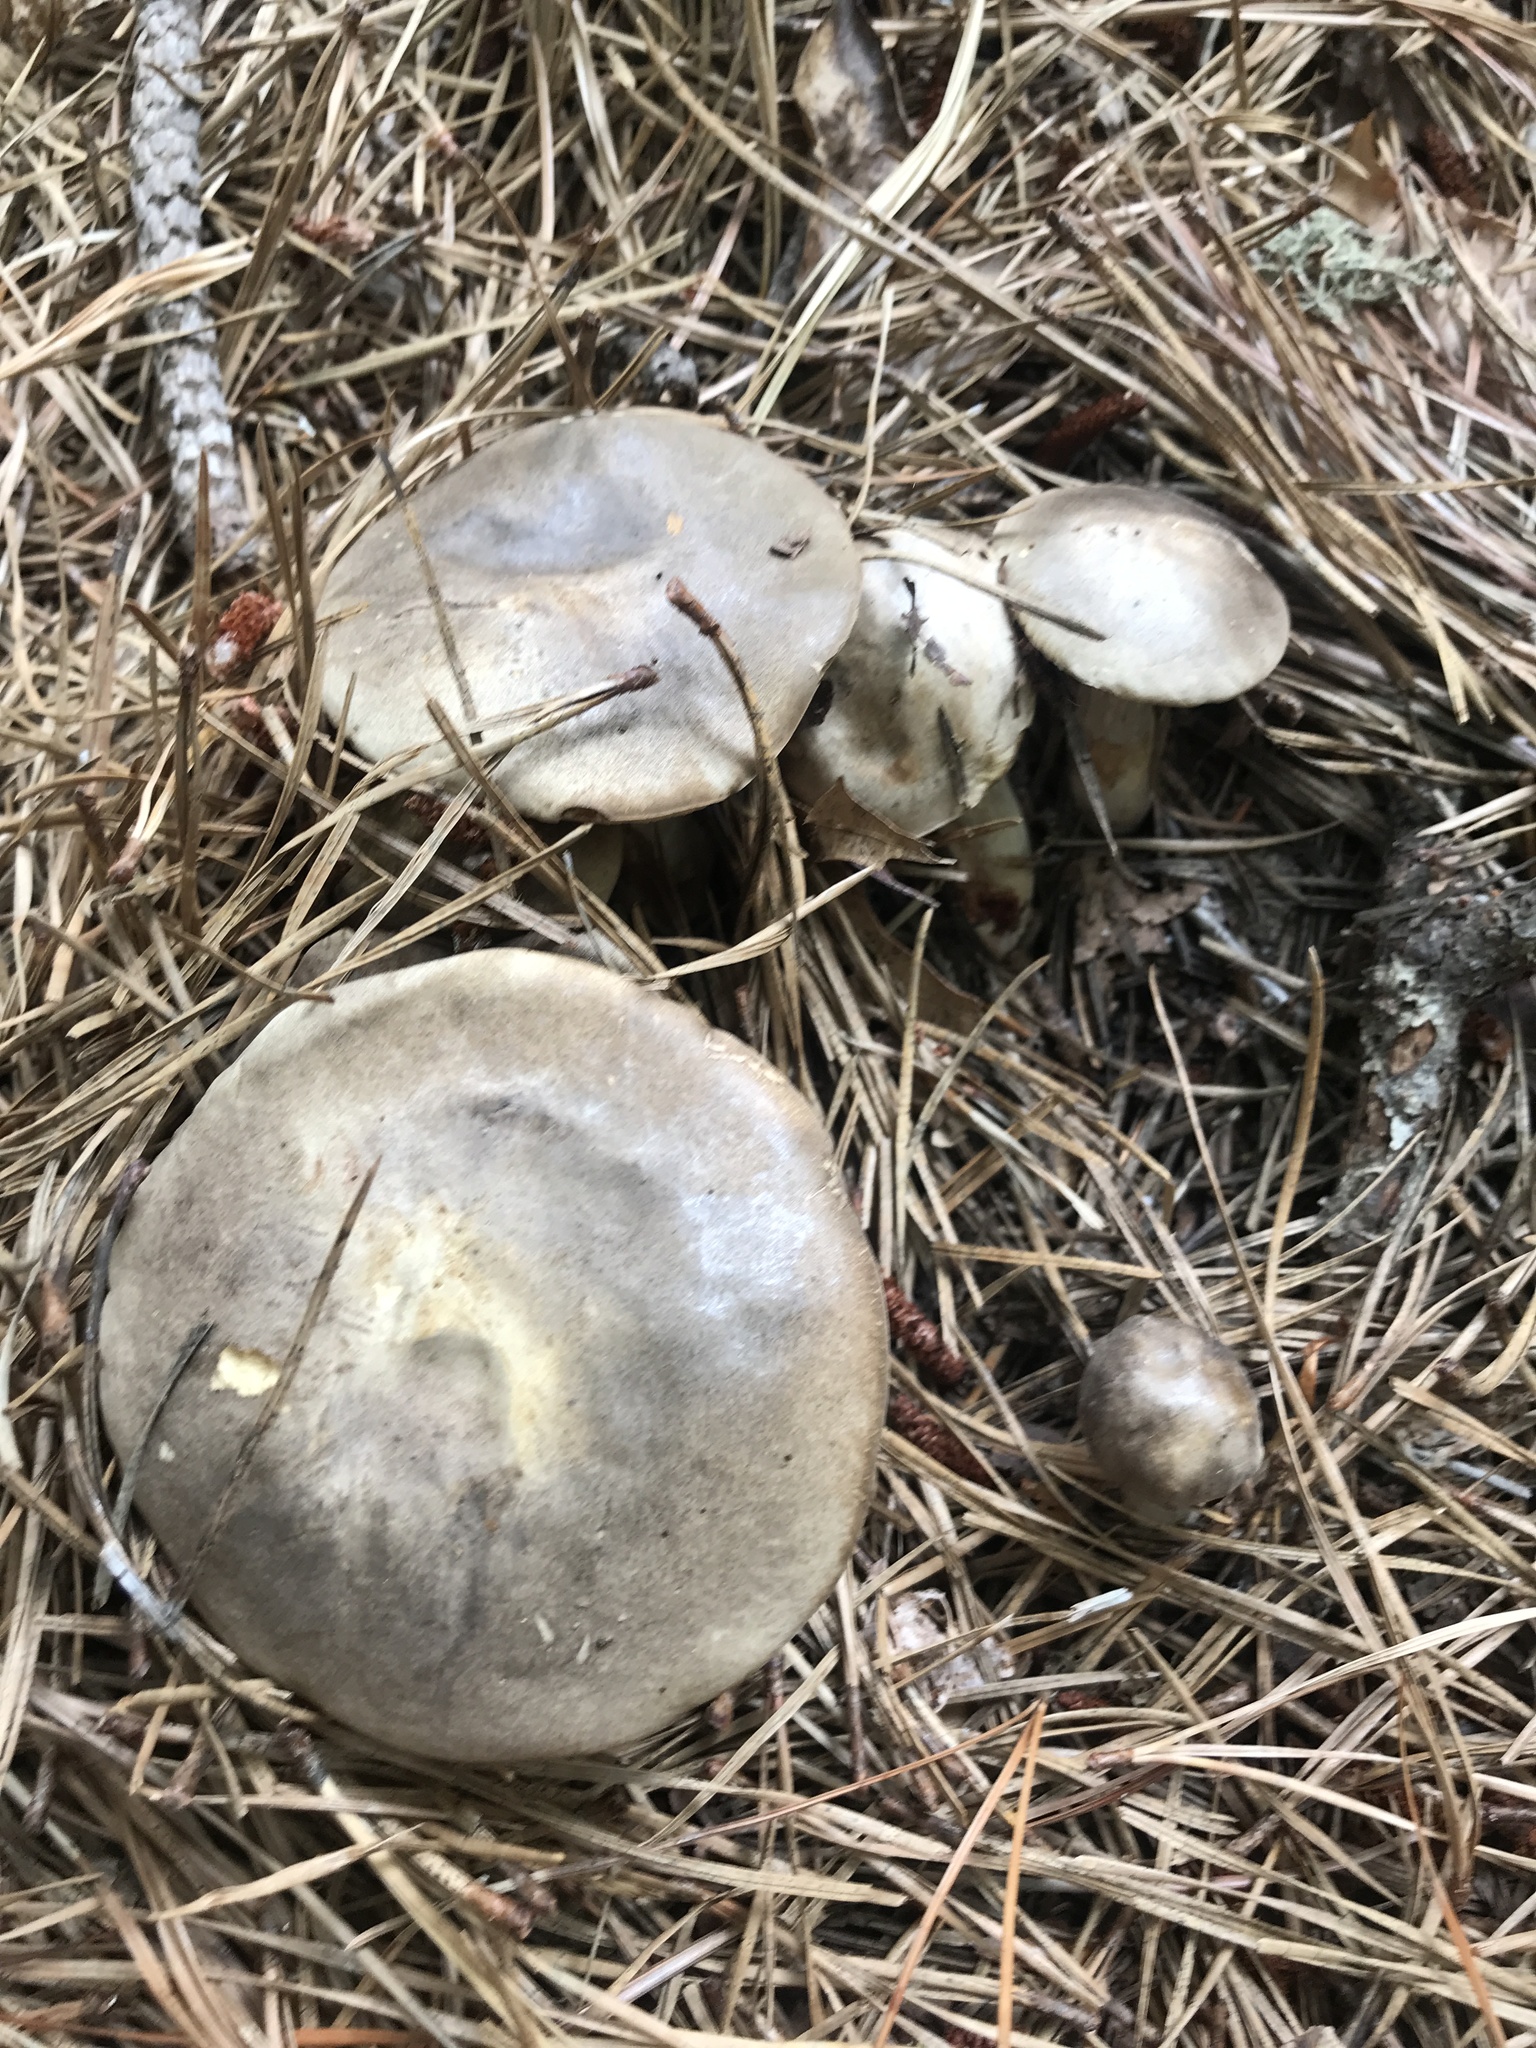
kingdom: Fungi
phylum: Basidiomycota
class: Agaricomycetes
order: Boletales
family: Boletaceae
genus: Retiboletus
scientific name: Retiboletus vinaceipes
